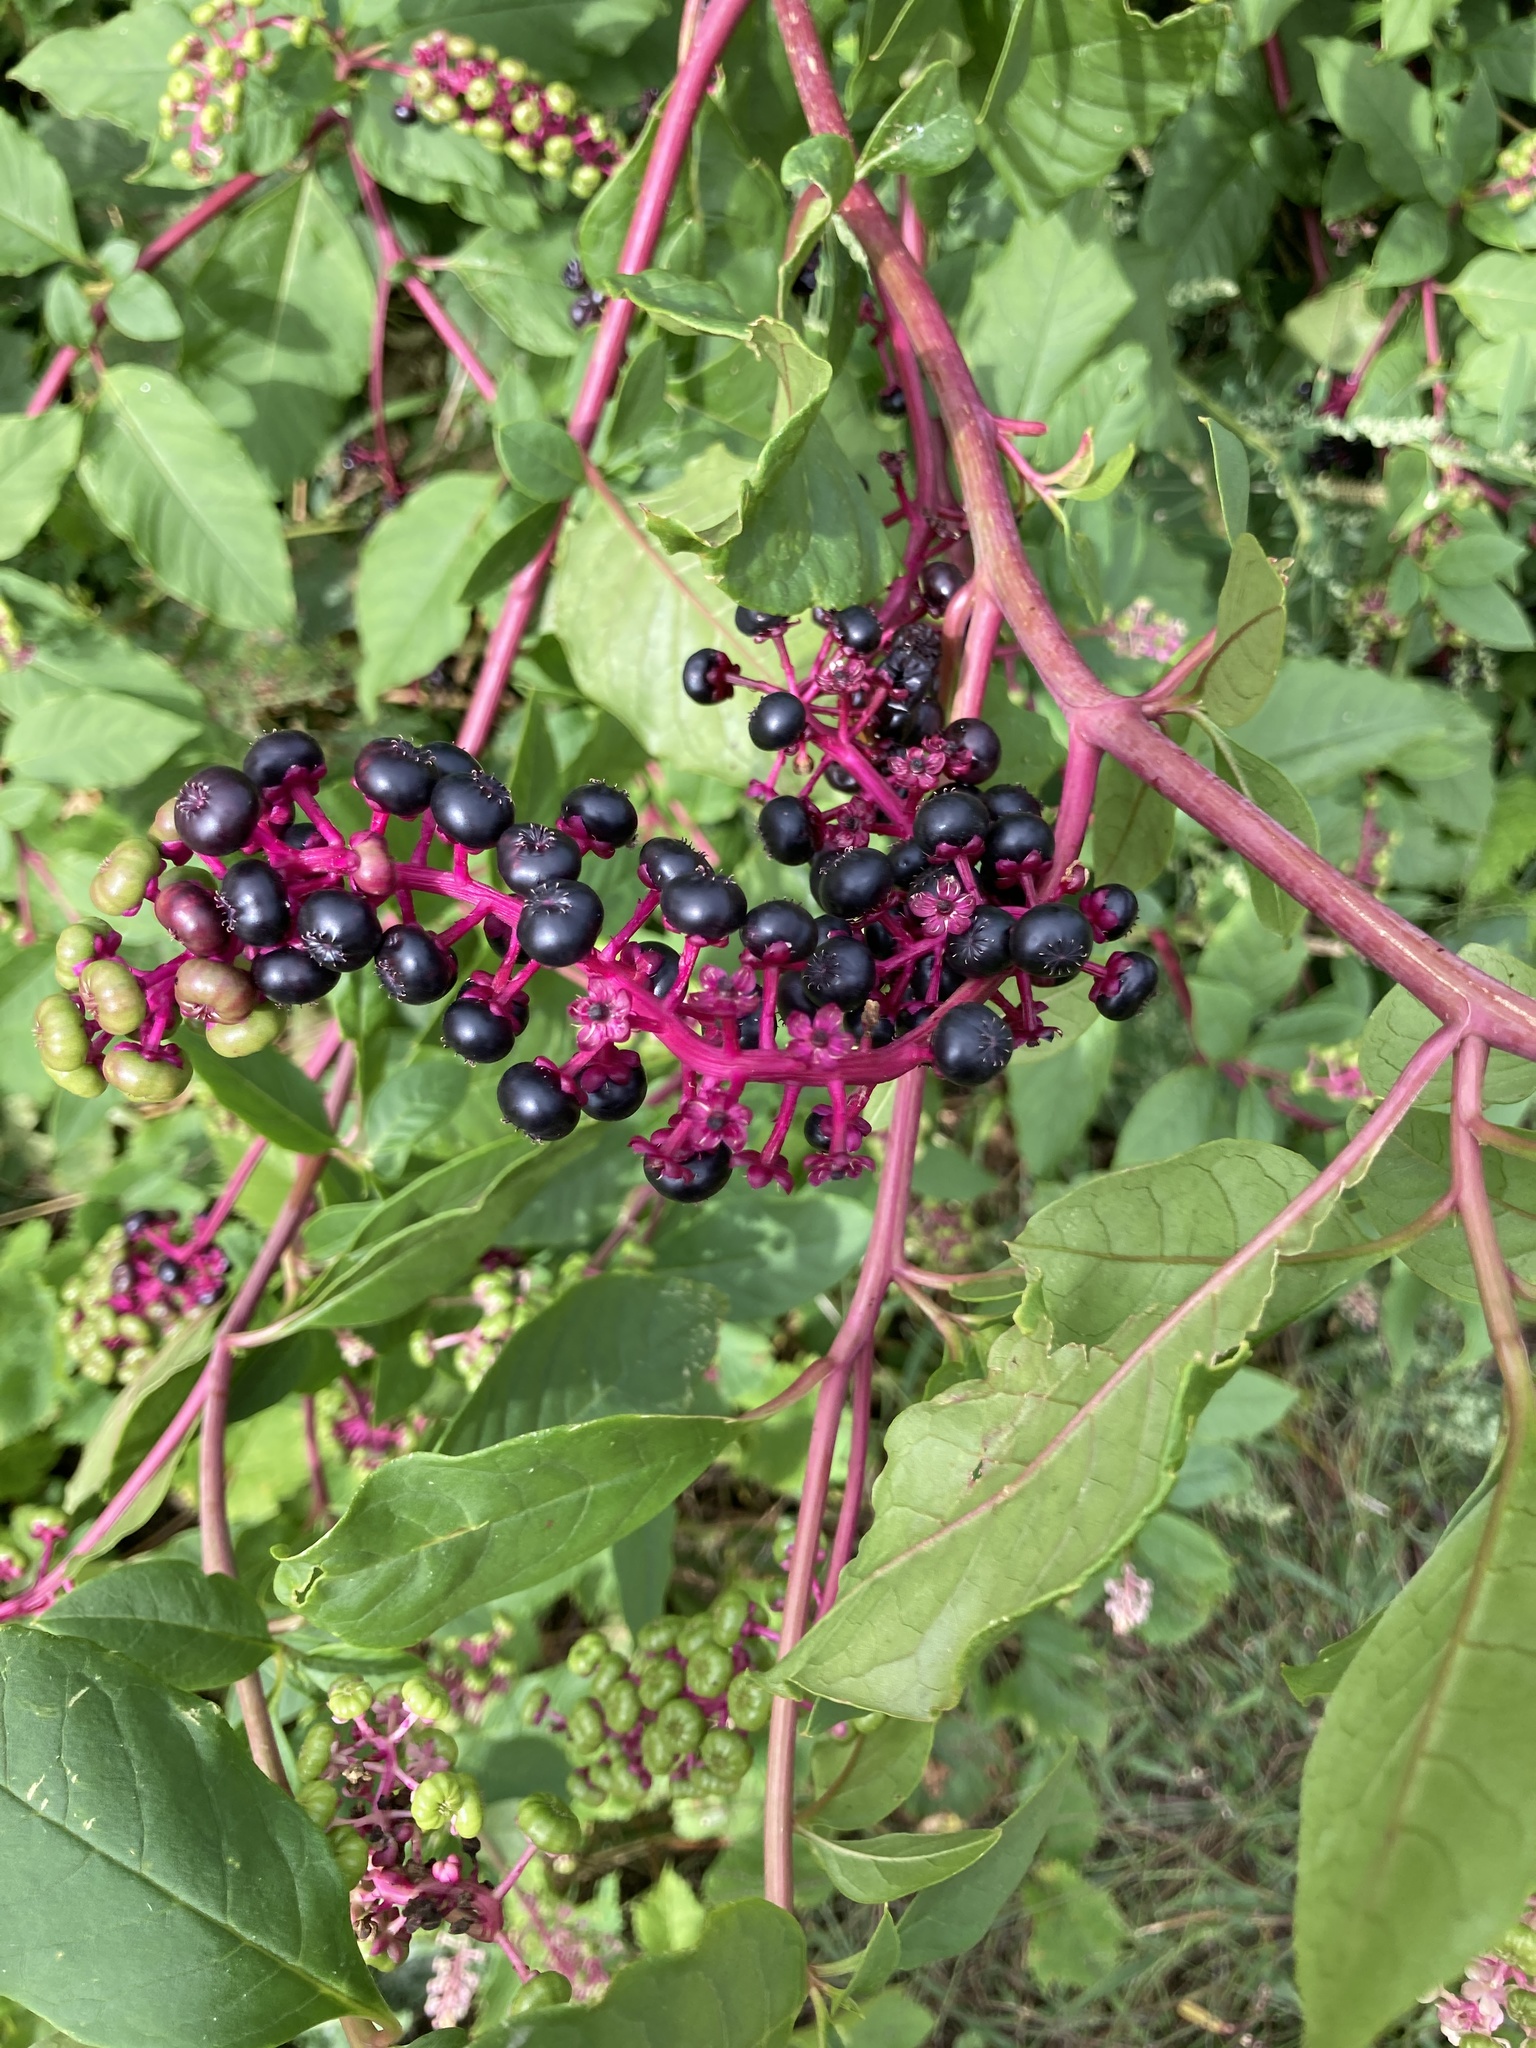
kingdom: Plantae
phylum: Tracheophyta
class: Magnoliopsida
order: Caryophyllales
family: Phytolaccaceae
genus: Phytolacca
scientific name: Phytolacca americana
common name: American pokeweed
